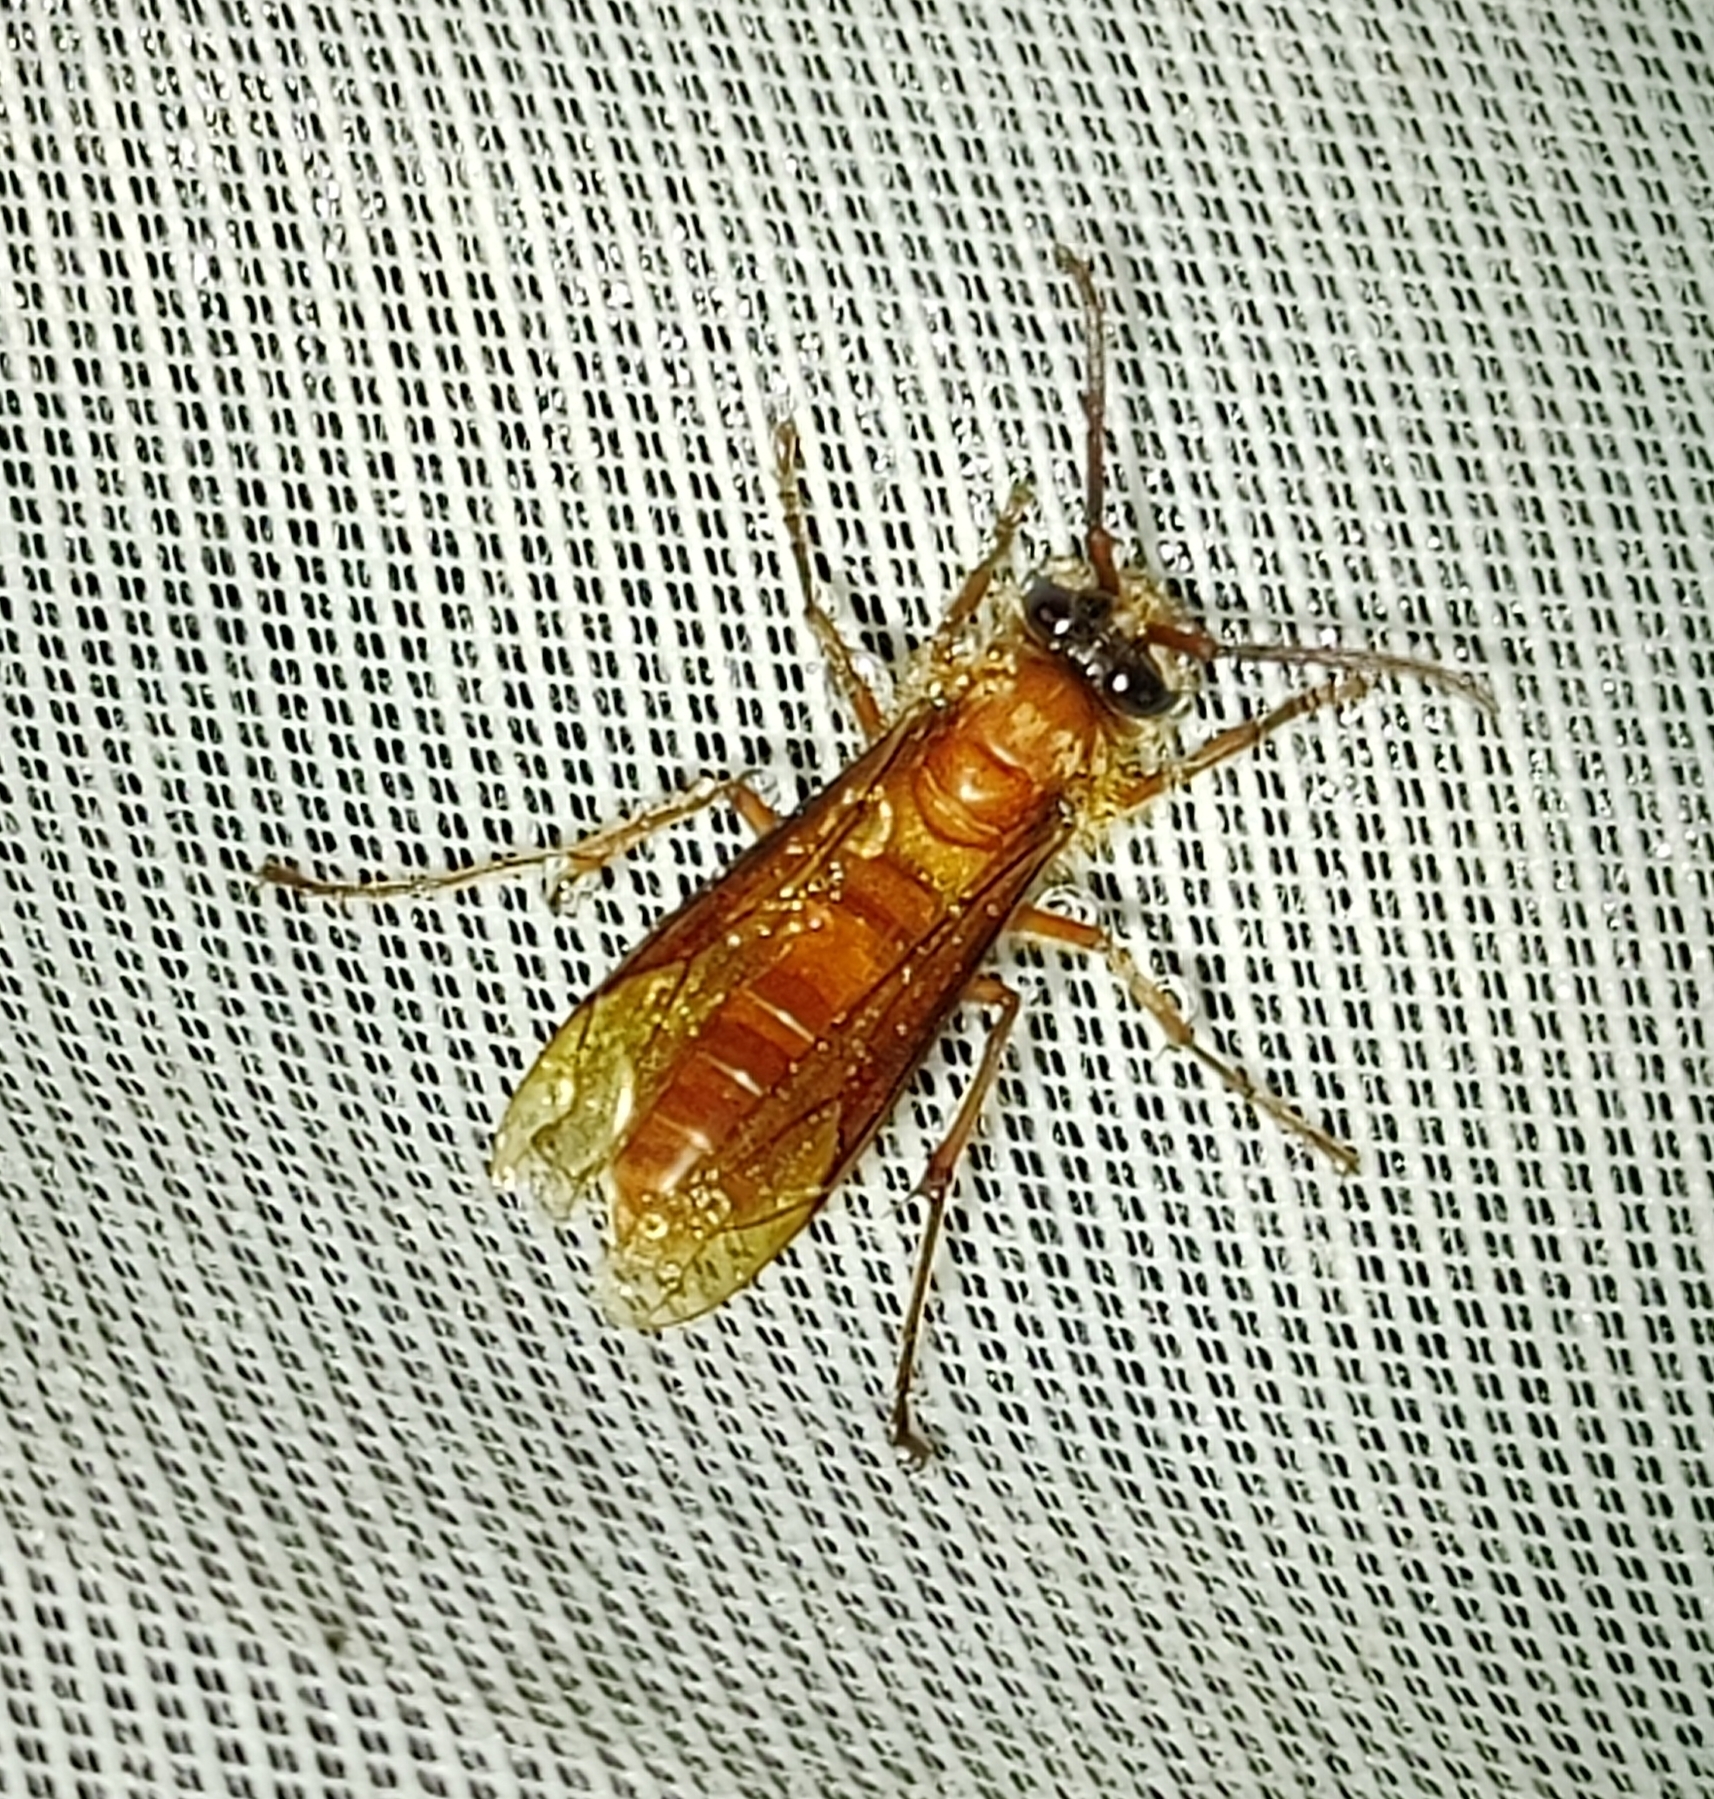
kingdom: Animalia
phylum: Arthropoda
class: Insecta
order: Hymenoptera
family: Vespidae
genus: Provespa
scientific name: Provespa barthelemyi
